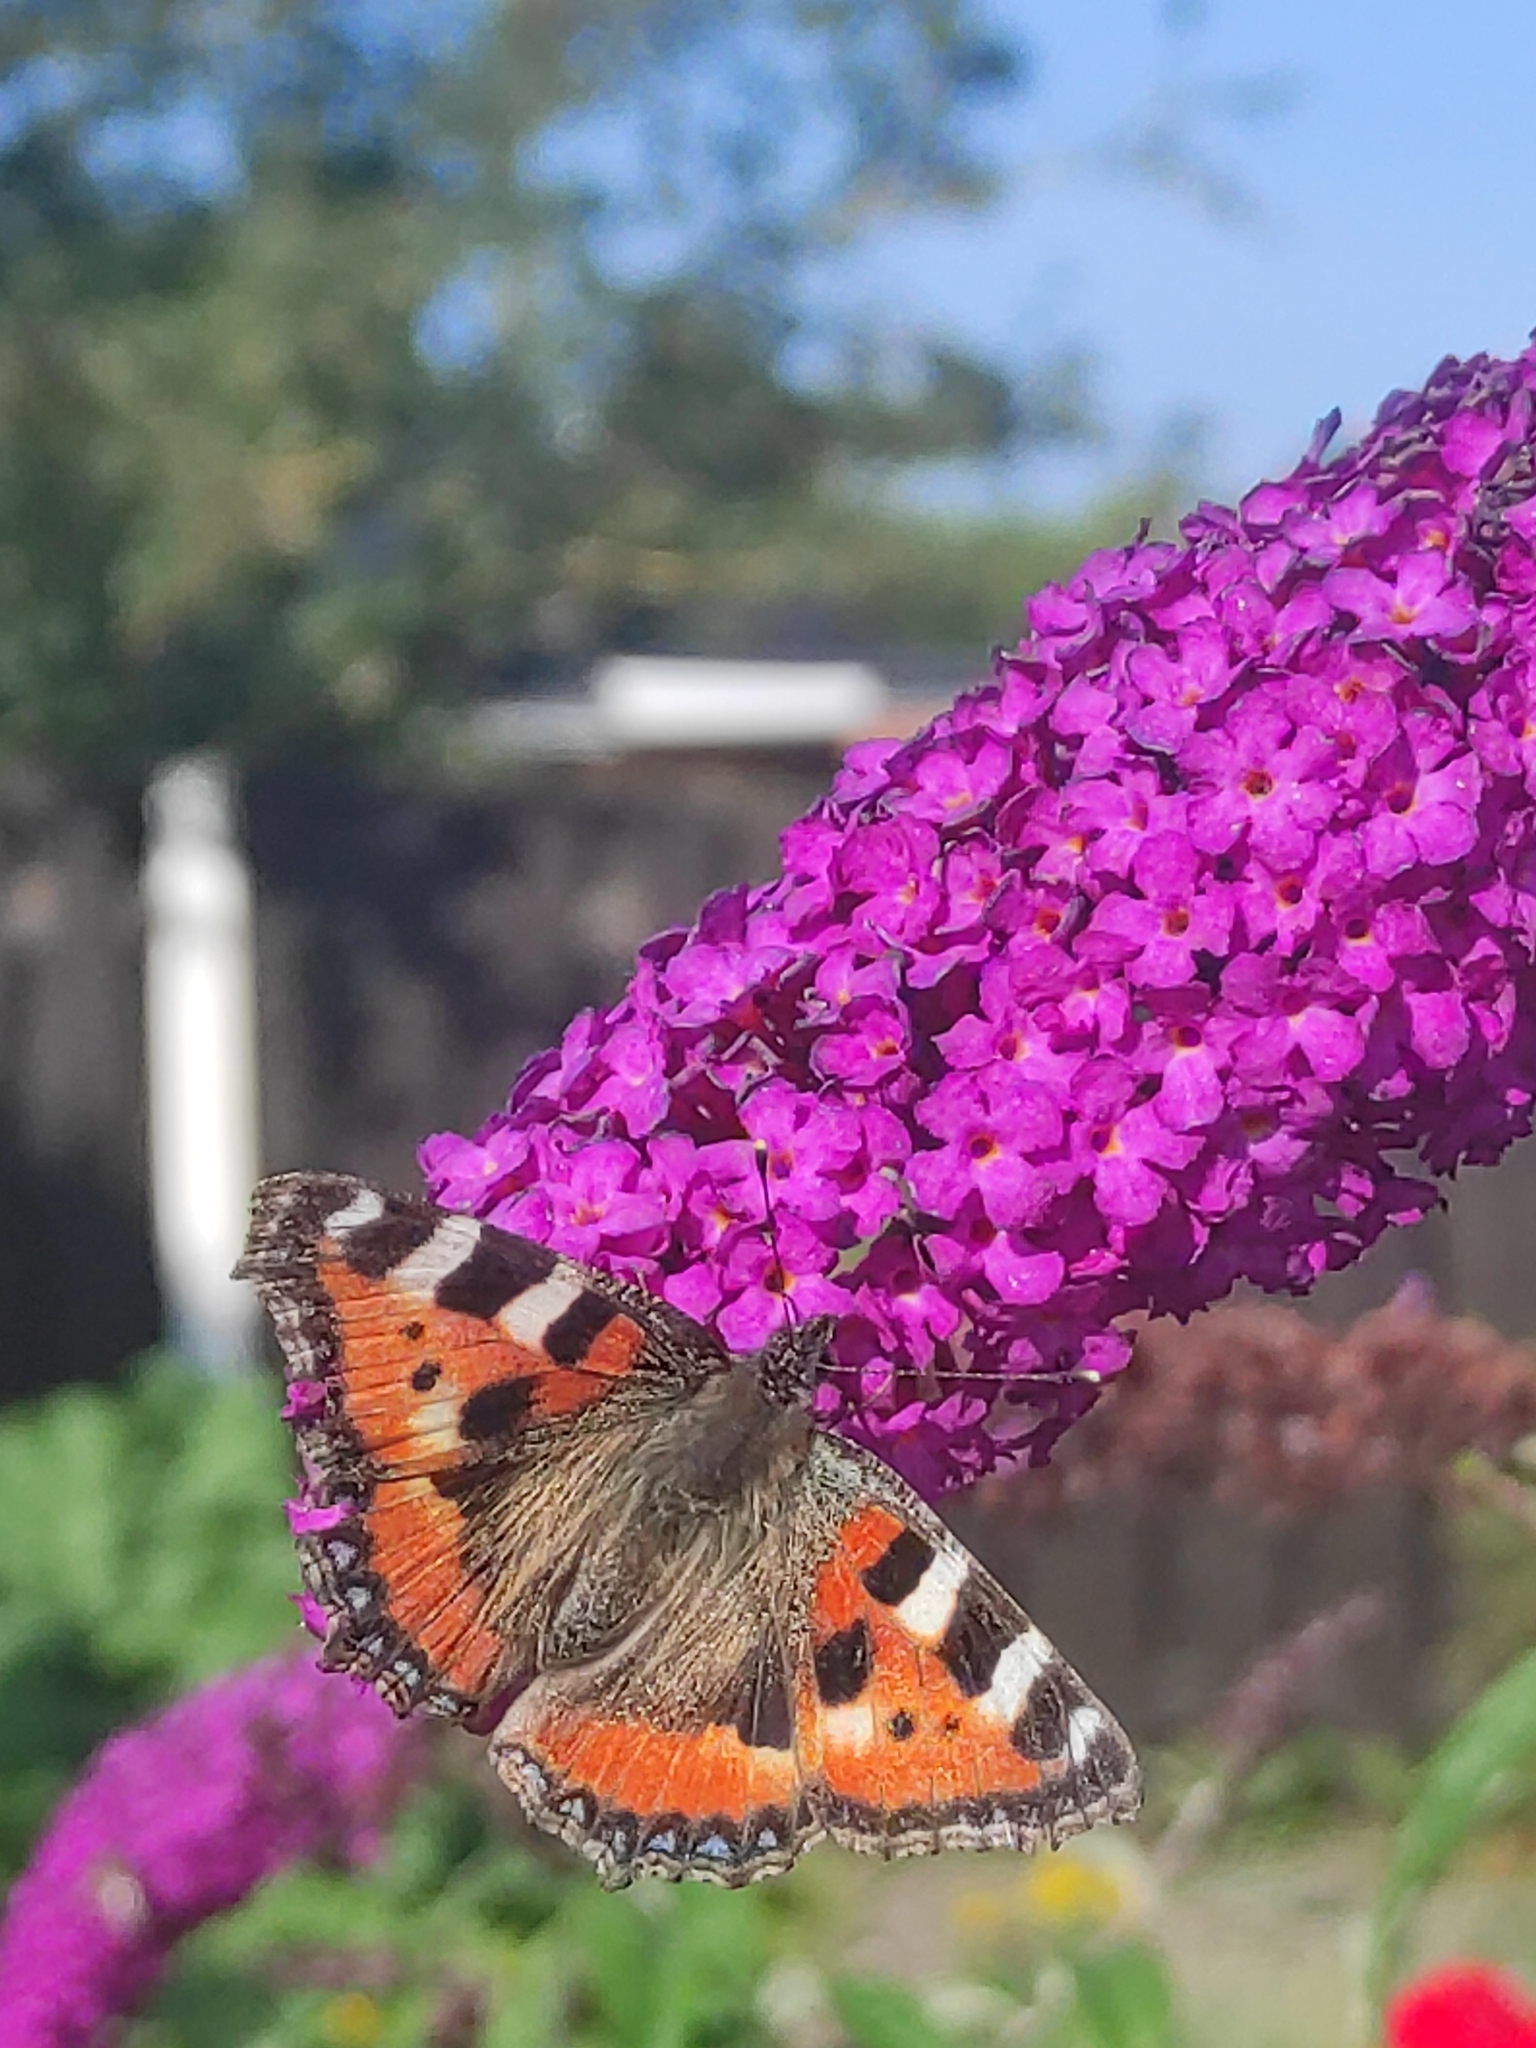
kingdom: Animalia
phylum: Arthropoda
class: Insecta
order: Lepidoptera
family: Nymphalidae
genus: Aglais
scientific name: Aglais urticae
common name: Small tortoiseshell
